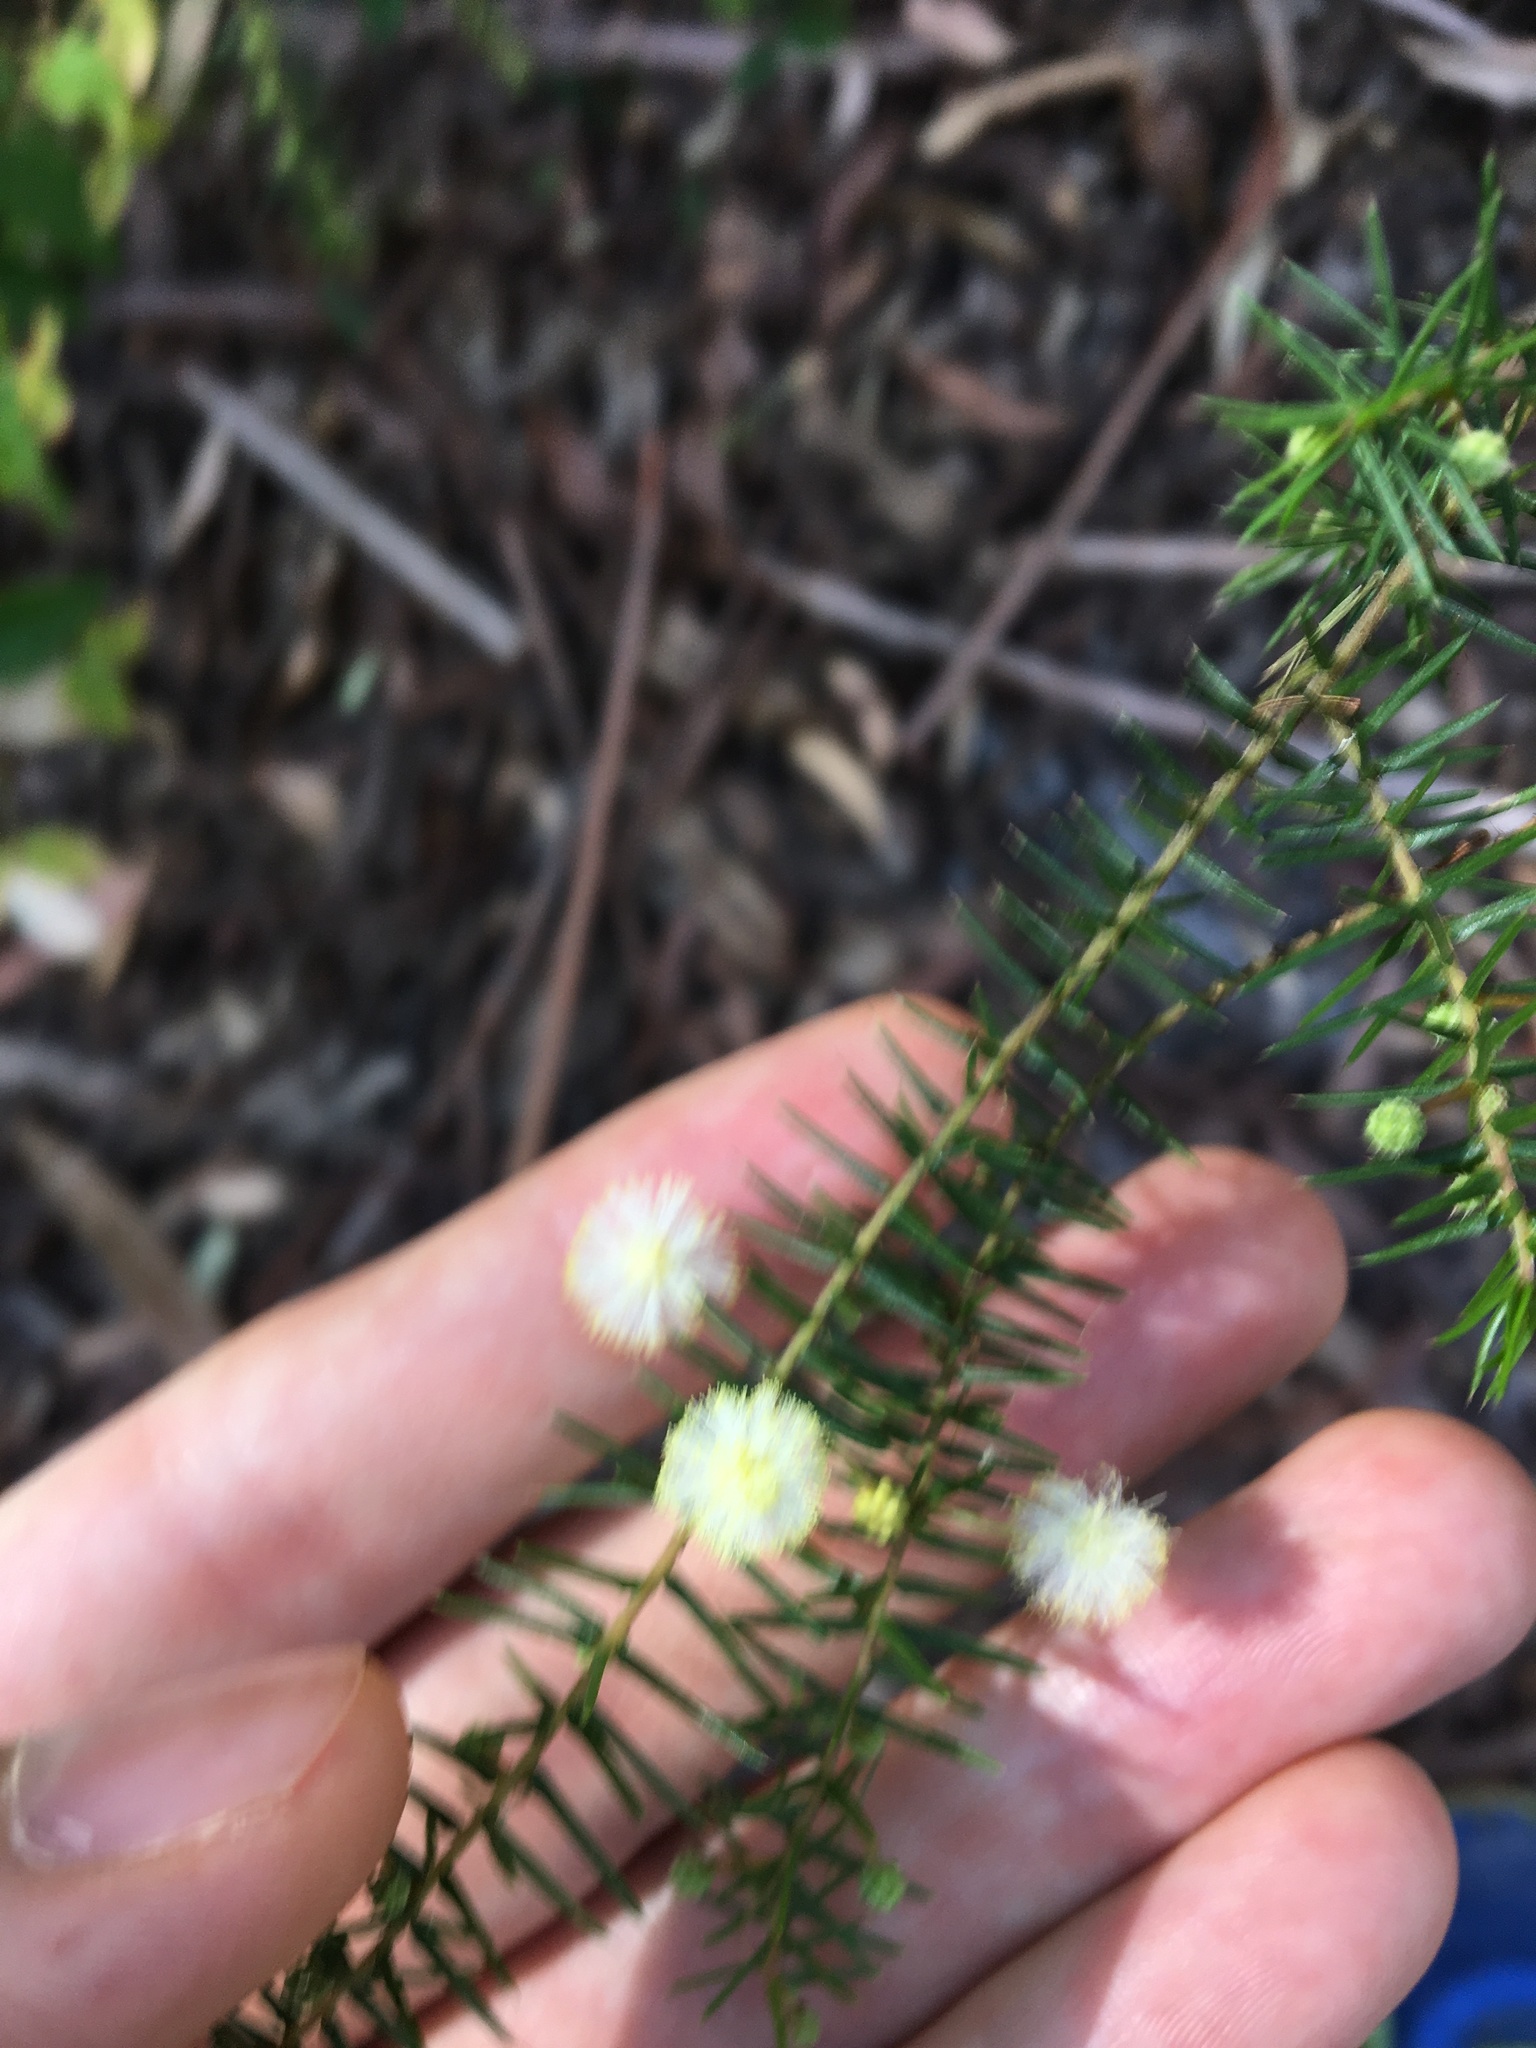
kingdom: Plantae
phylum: Tracheophyta
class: Magnoliopsida
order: Fabales
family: Fabaceae
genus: Acacia
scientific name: Acacia ulicifolia
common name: Juniper wattle
